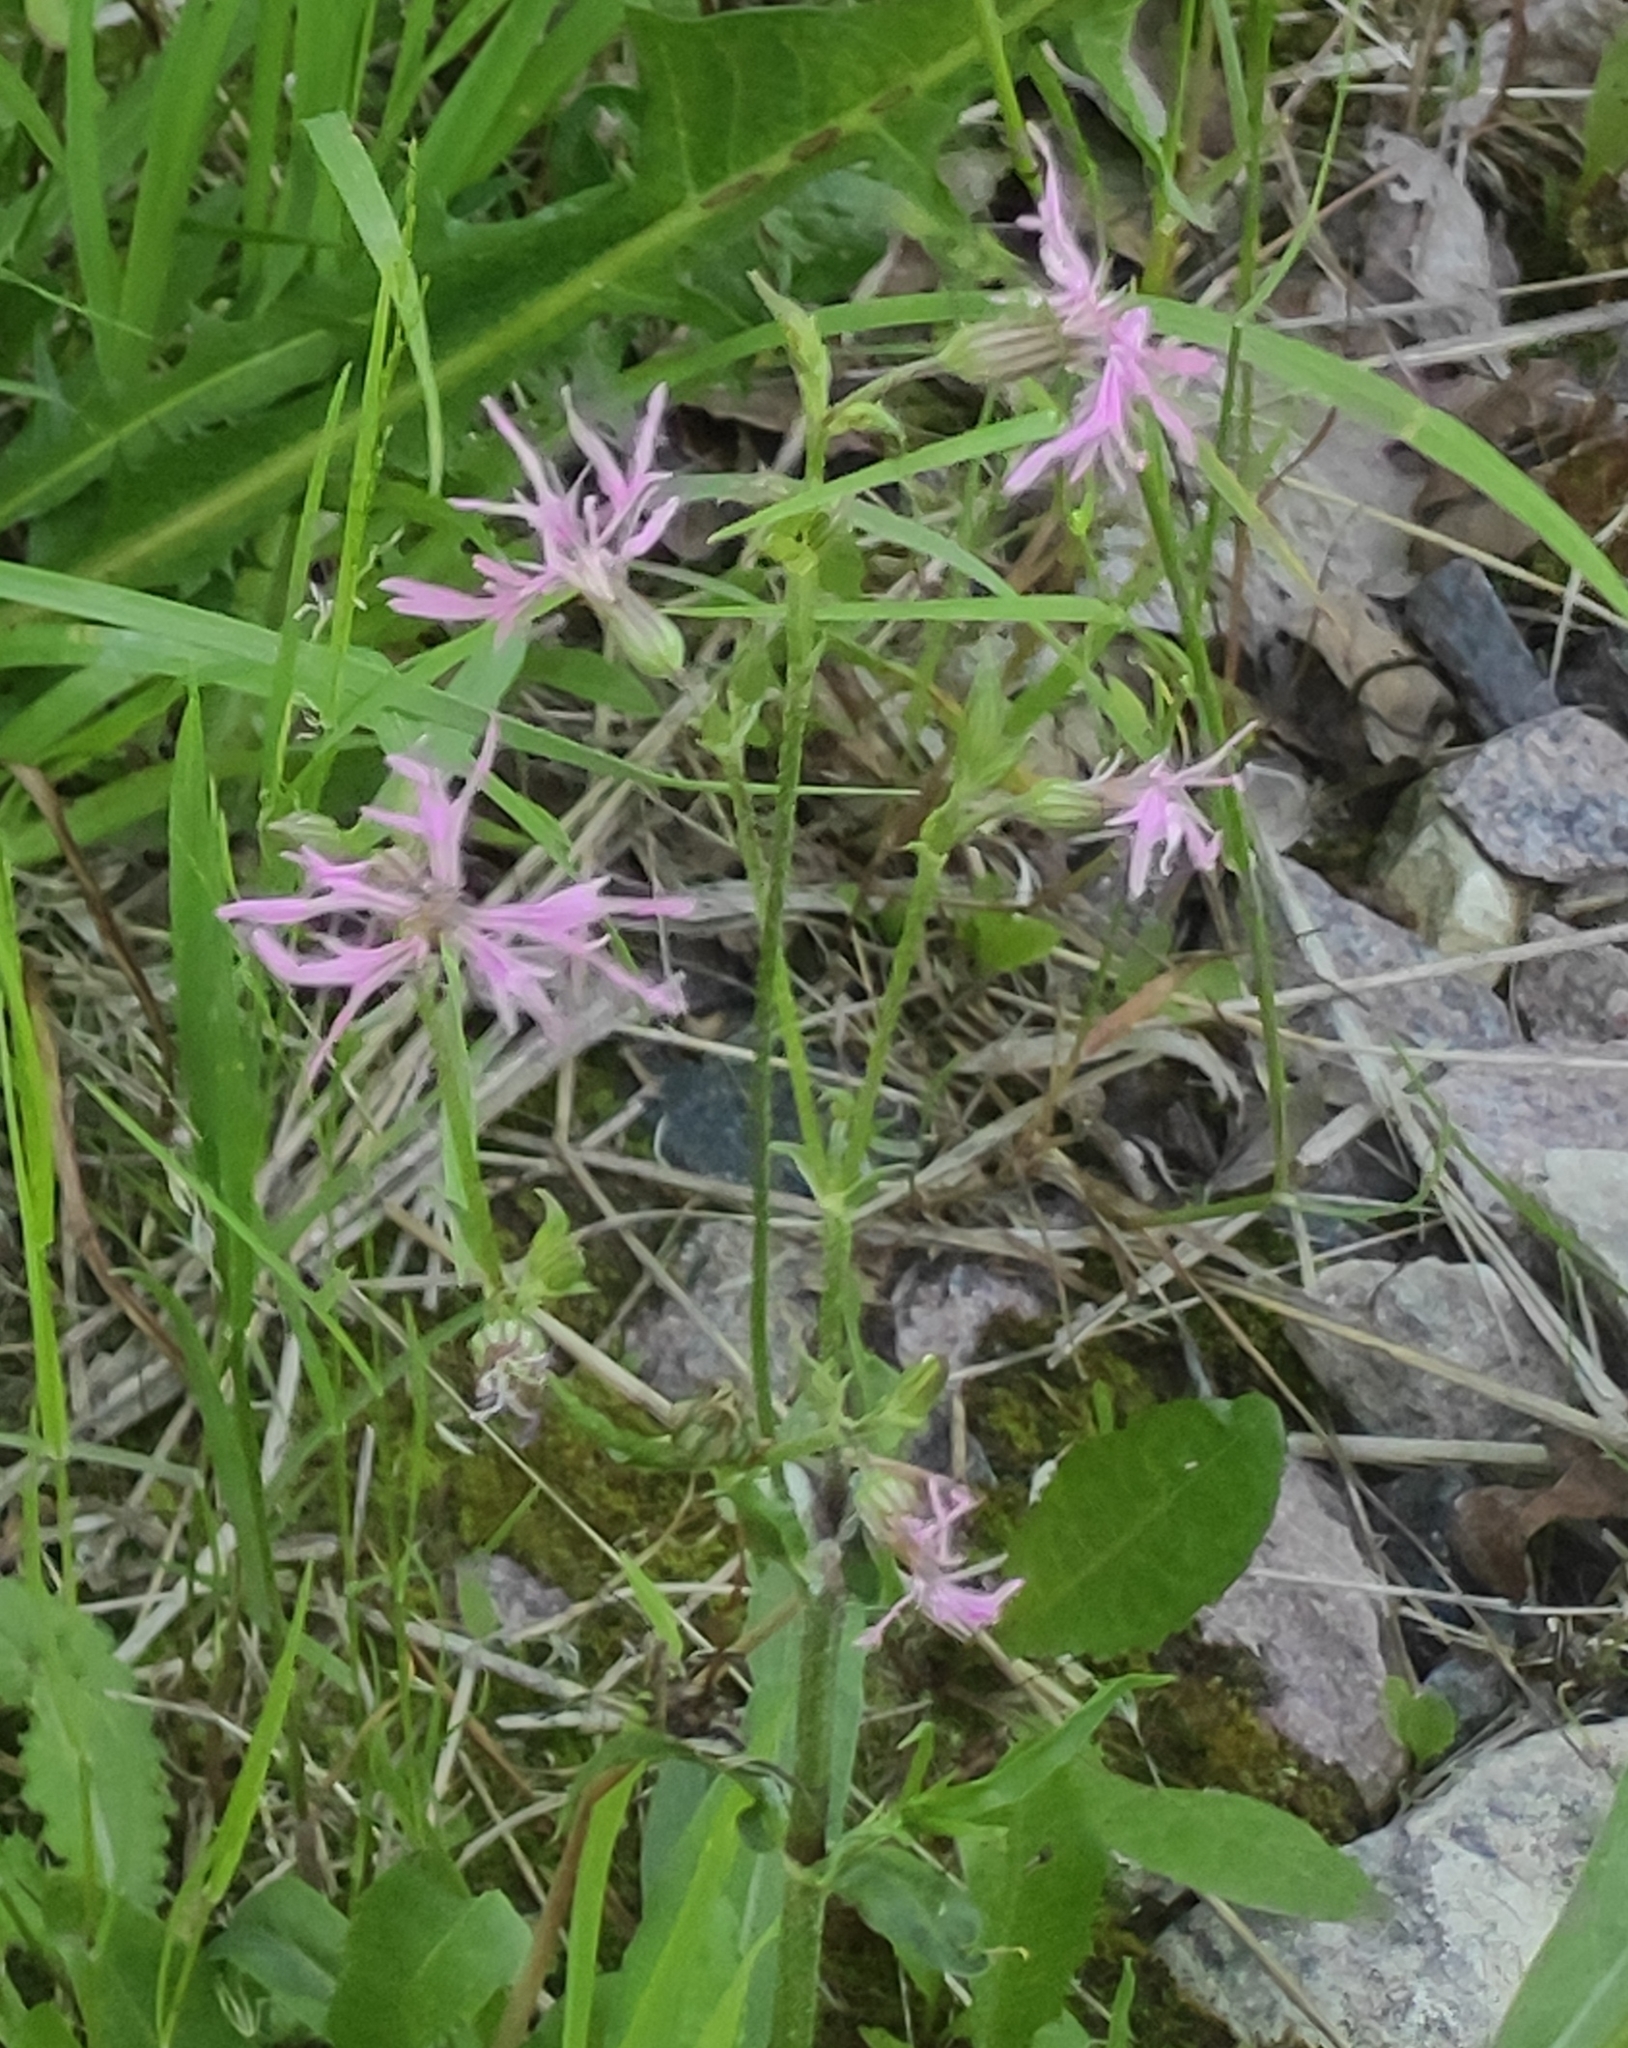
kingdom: Plantae
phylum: Tracheophyta
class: Magnoliopsida
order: Caryophyllales
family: Caryophyllaceae
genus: Silene
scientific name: Silene flos-cuculi
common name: Ragged-robin
